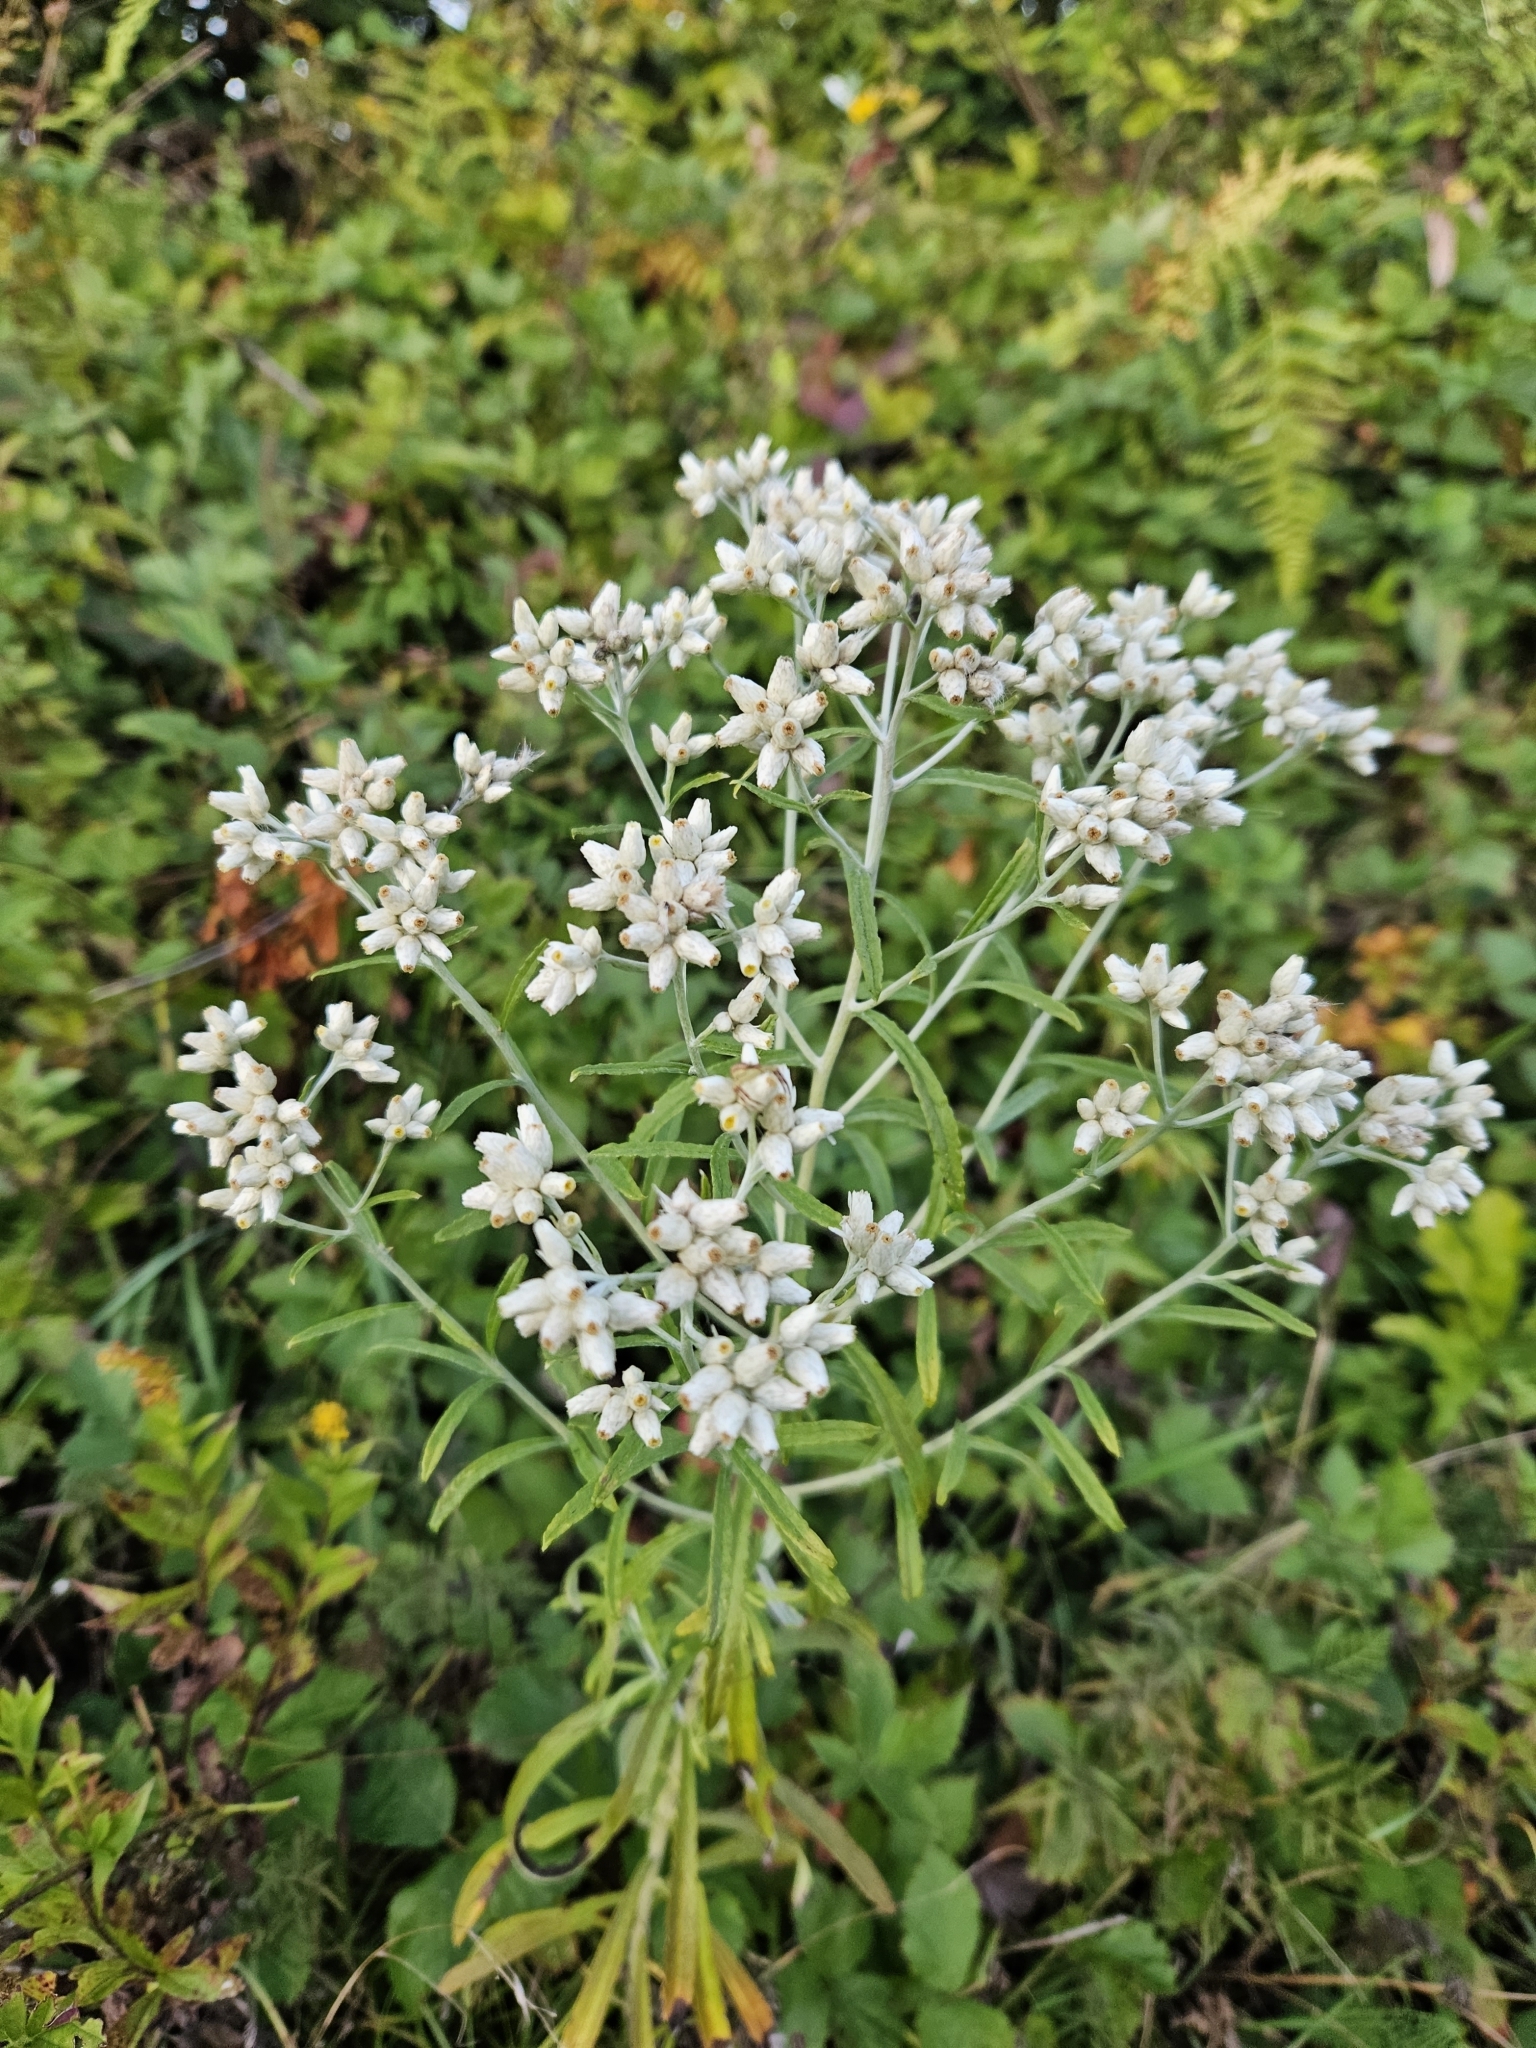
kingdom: Plantae
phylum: Tracheophyta
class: Magnoliopsida
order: Asterales
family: Asteraceae
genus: Pseudognaphalium
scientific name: Pseudognaphalium obtusifolium
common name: Eastern rabbit-tobacco
